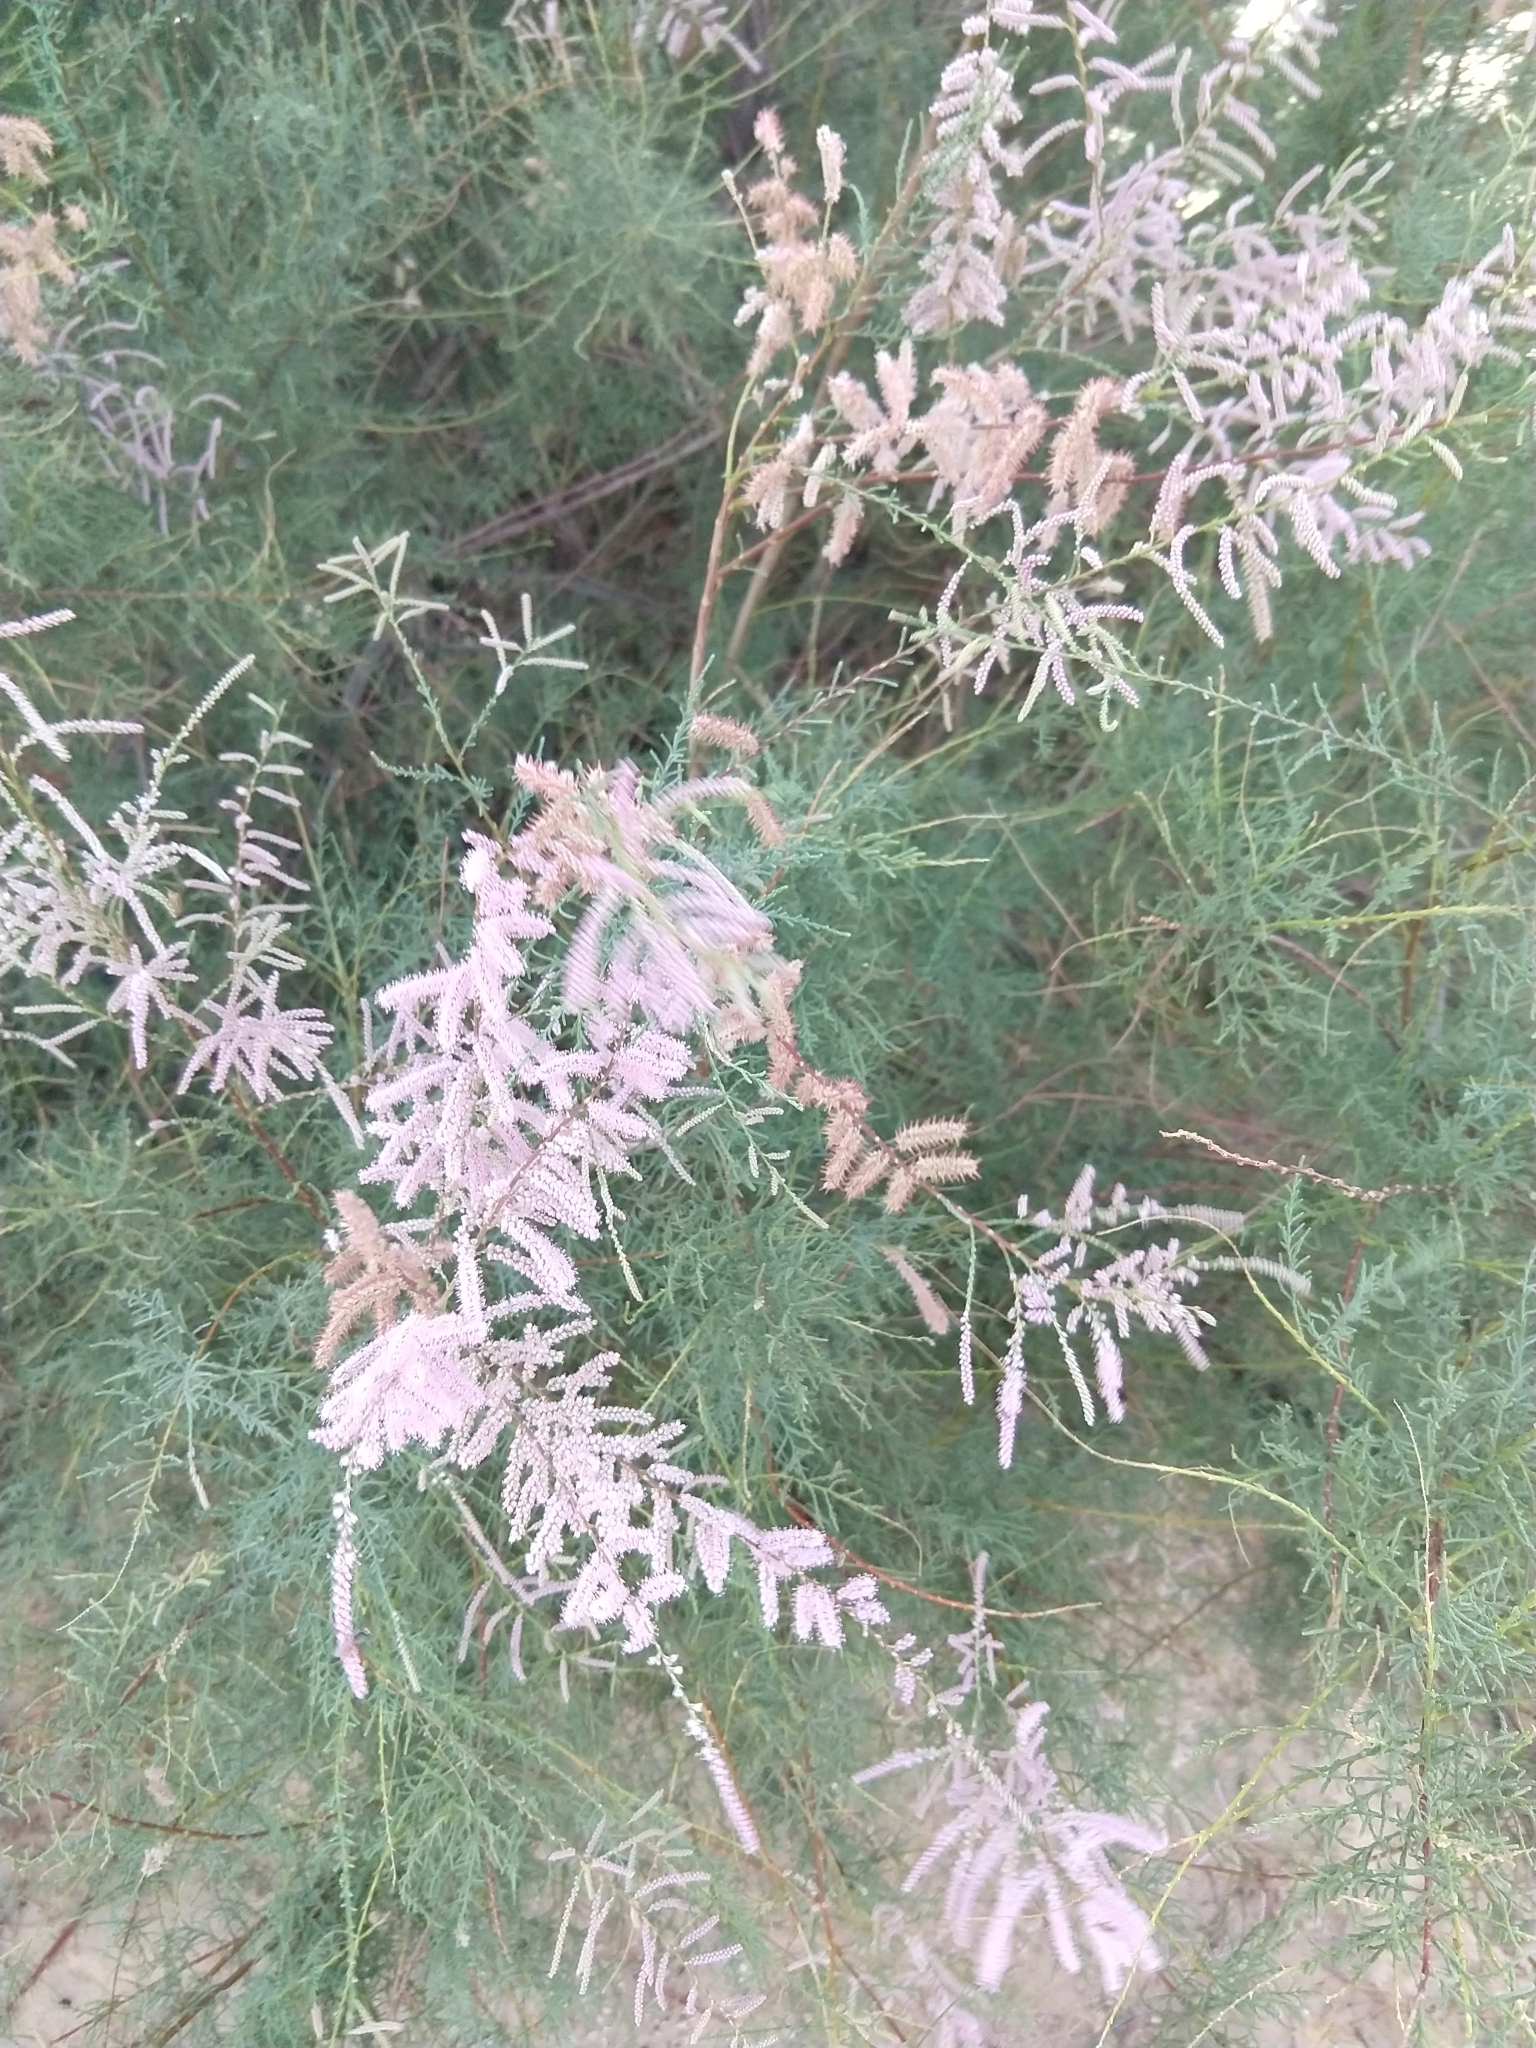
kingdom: Plantae
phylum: Tracheophyta
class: Magnoliopsida
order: Caryophyllales
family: Tamaricaceae
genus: Tamarix
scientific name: Tamarix
